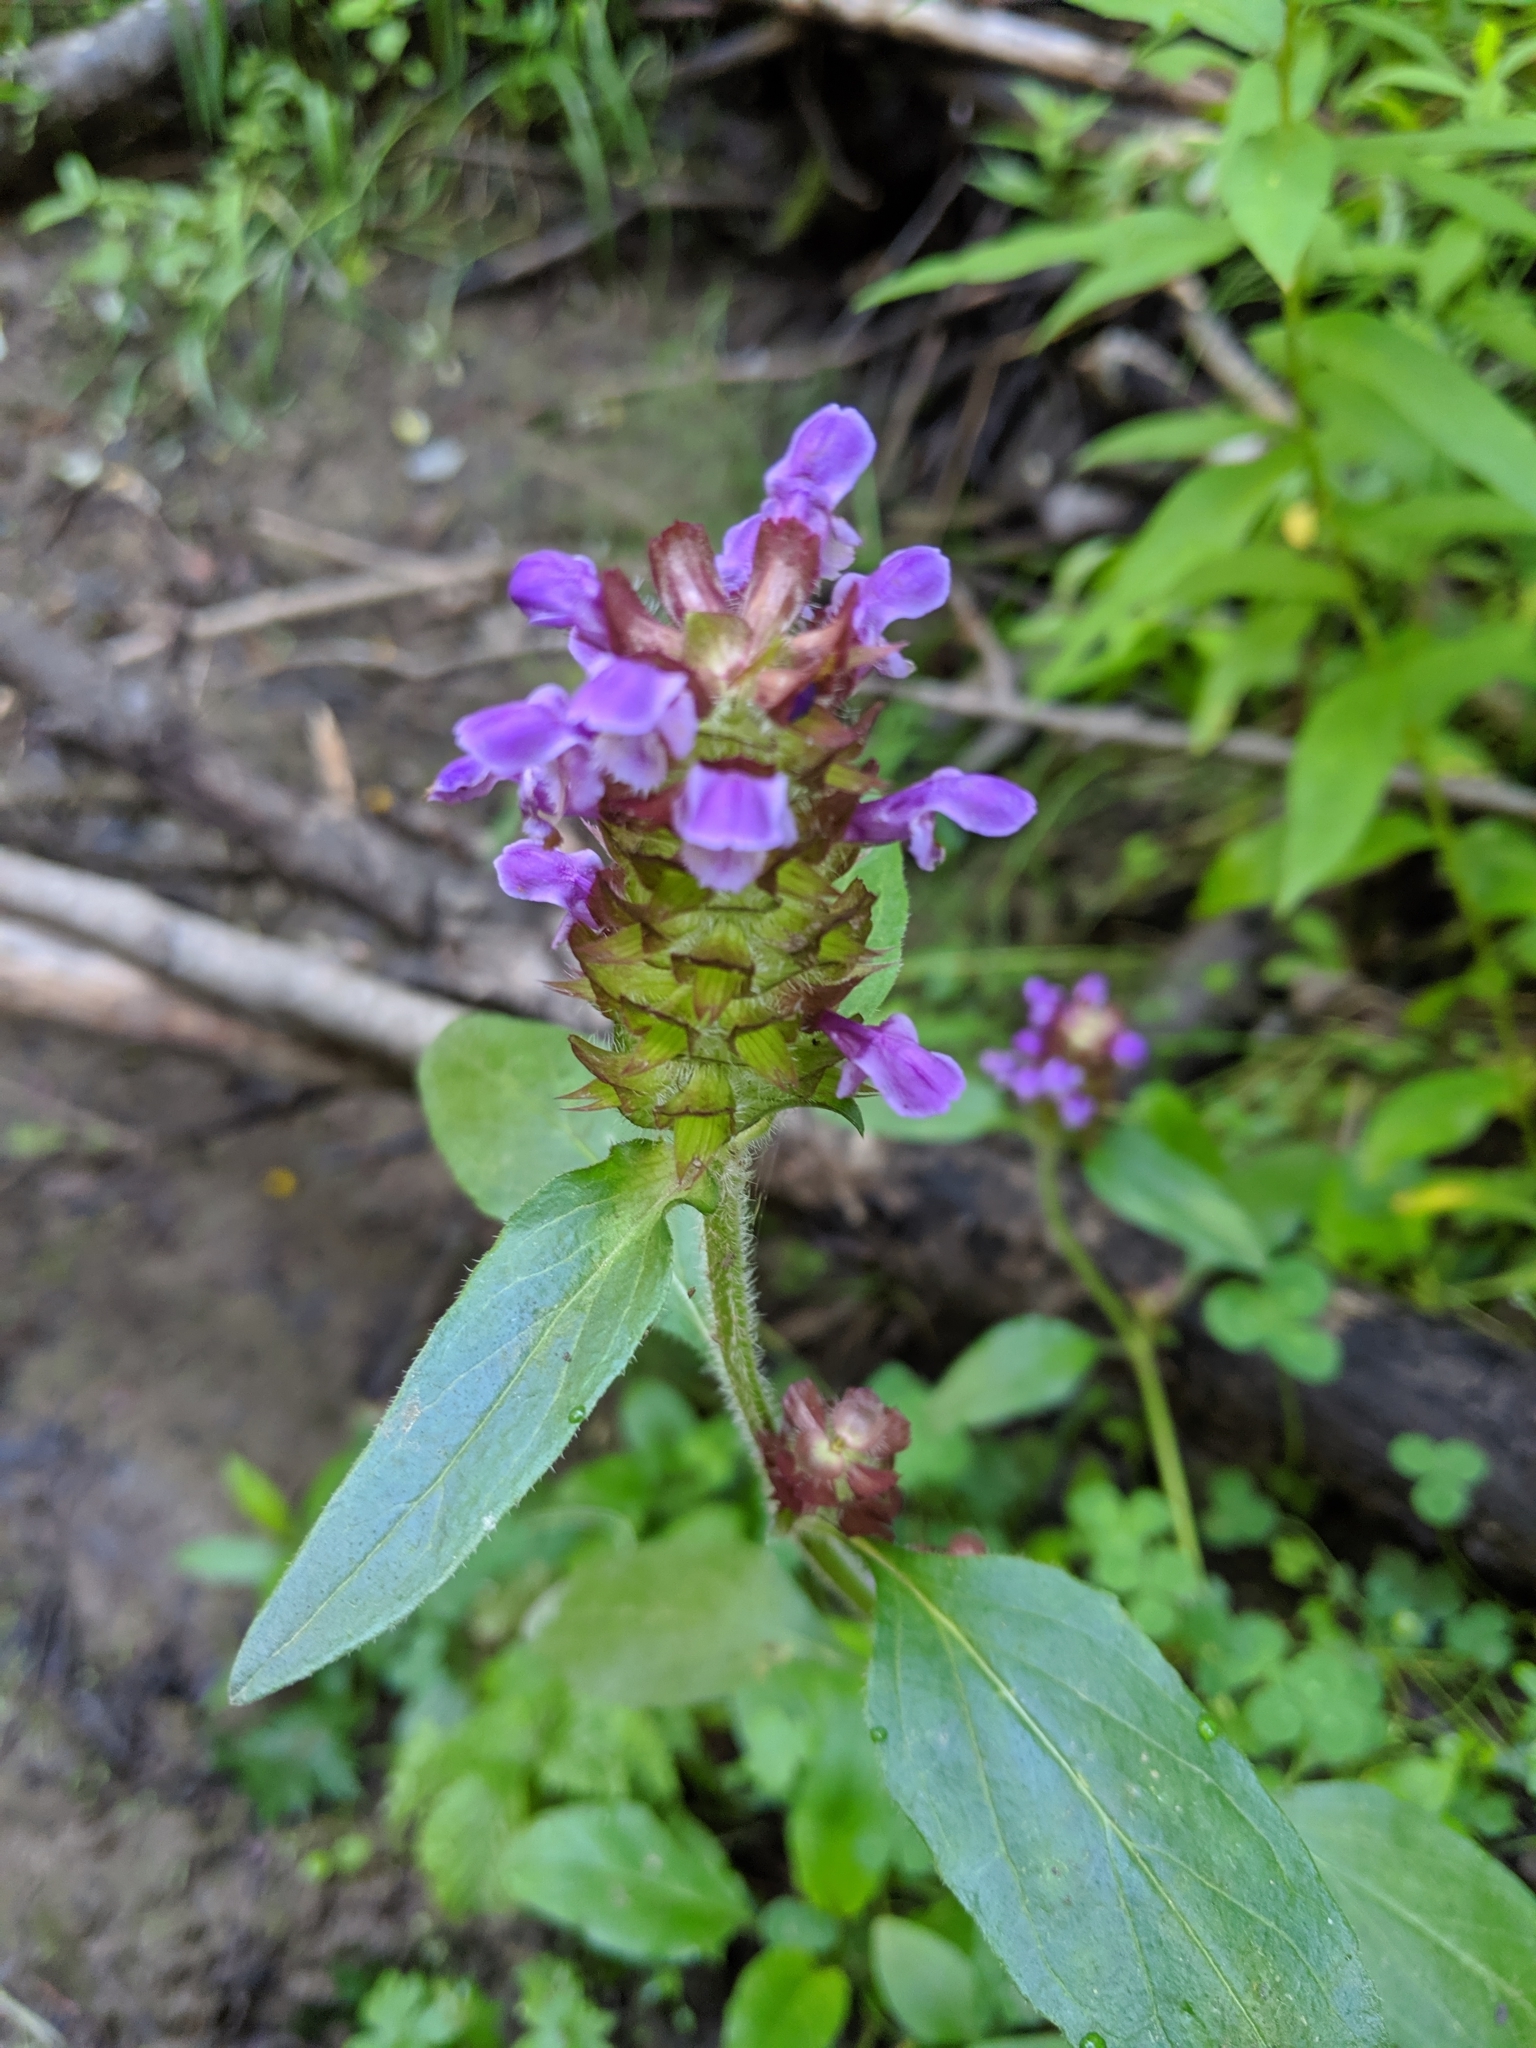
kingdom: Plantae
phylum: Tracheophyta
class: Magnoliopsida
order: Lamiales
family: Lamiaceae
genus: Prunella
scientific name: Prunella vulgaris
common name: Heal-all
